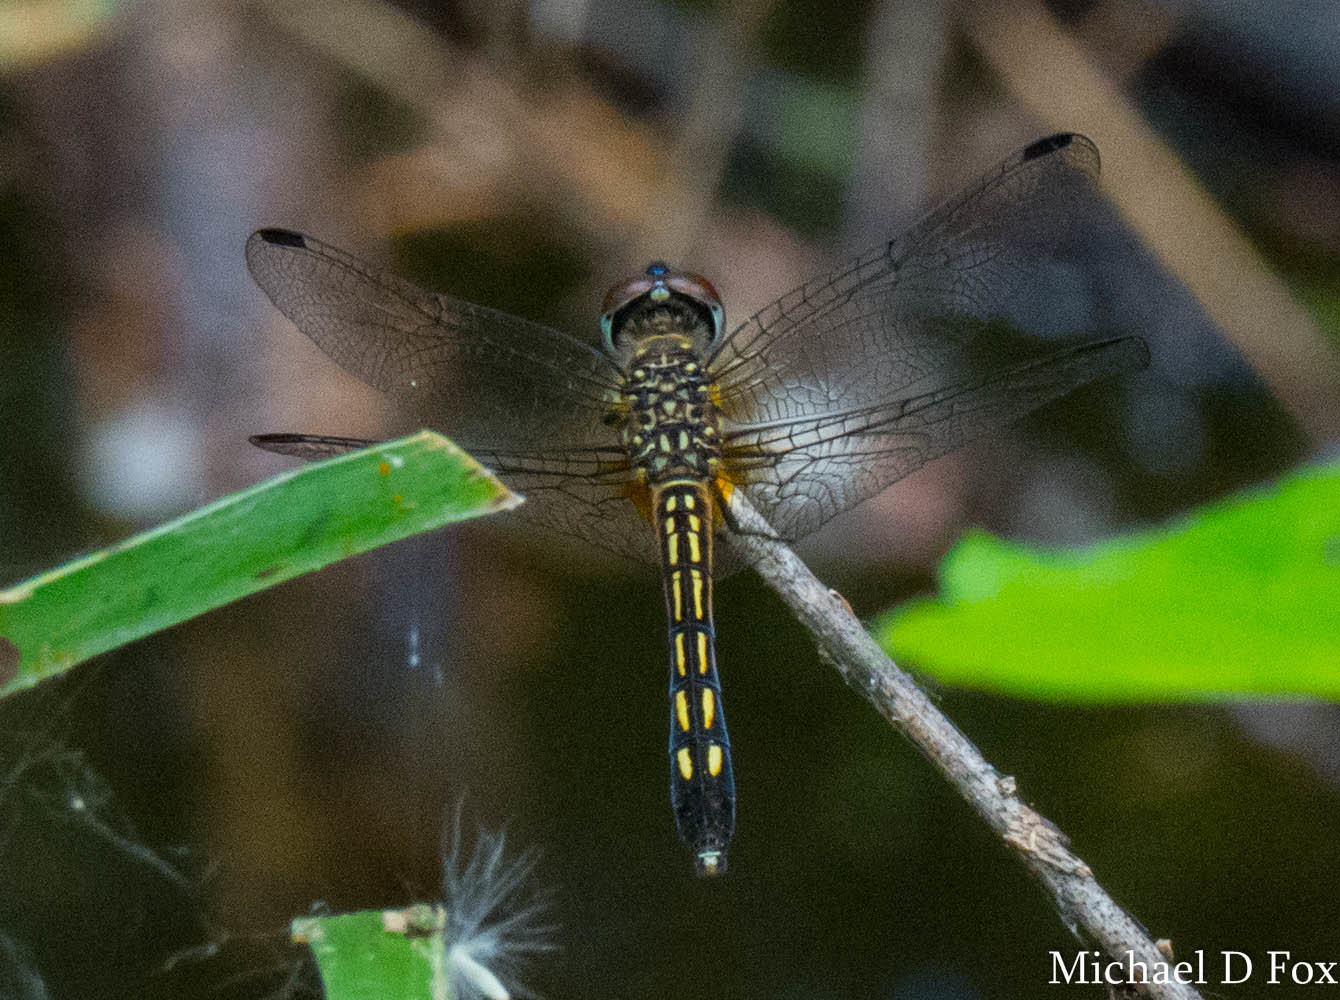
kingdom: Animalia
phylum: Arthropoda
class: Insecta
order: Odonata
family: Libellulidae
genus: Pachydiplax
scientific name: Pachydiplax longipennis
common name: Blue dasher
